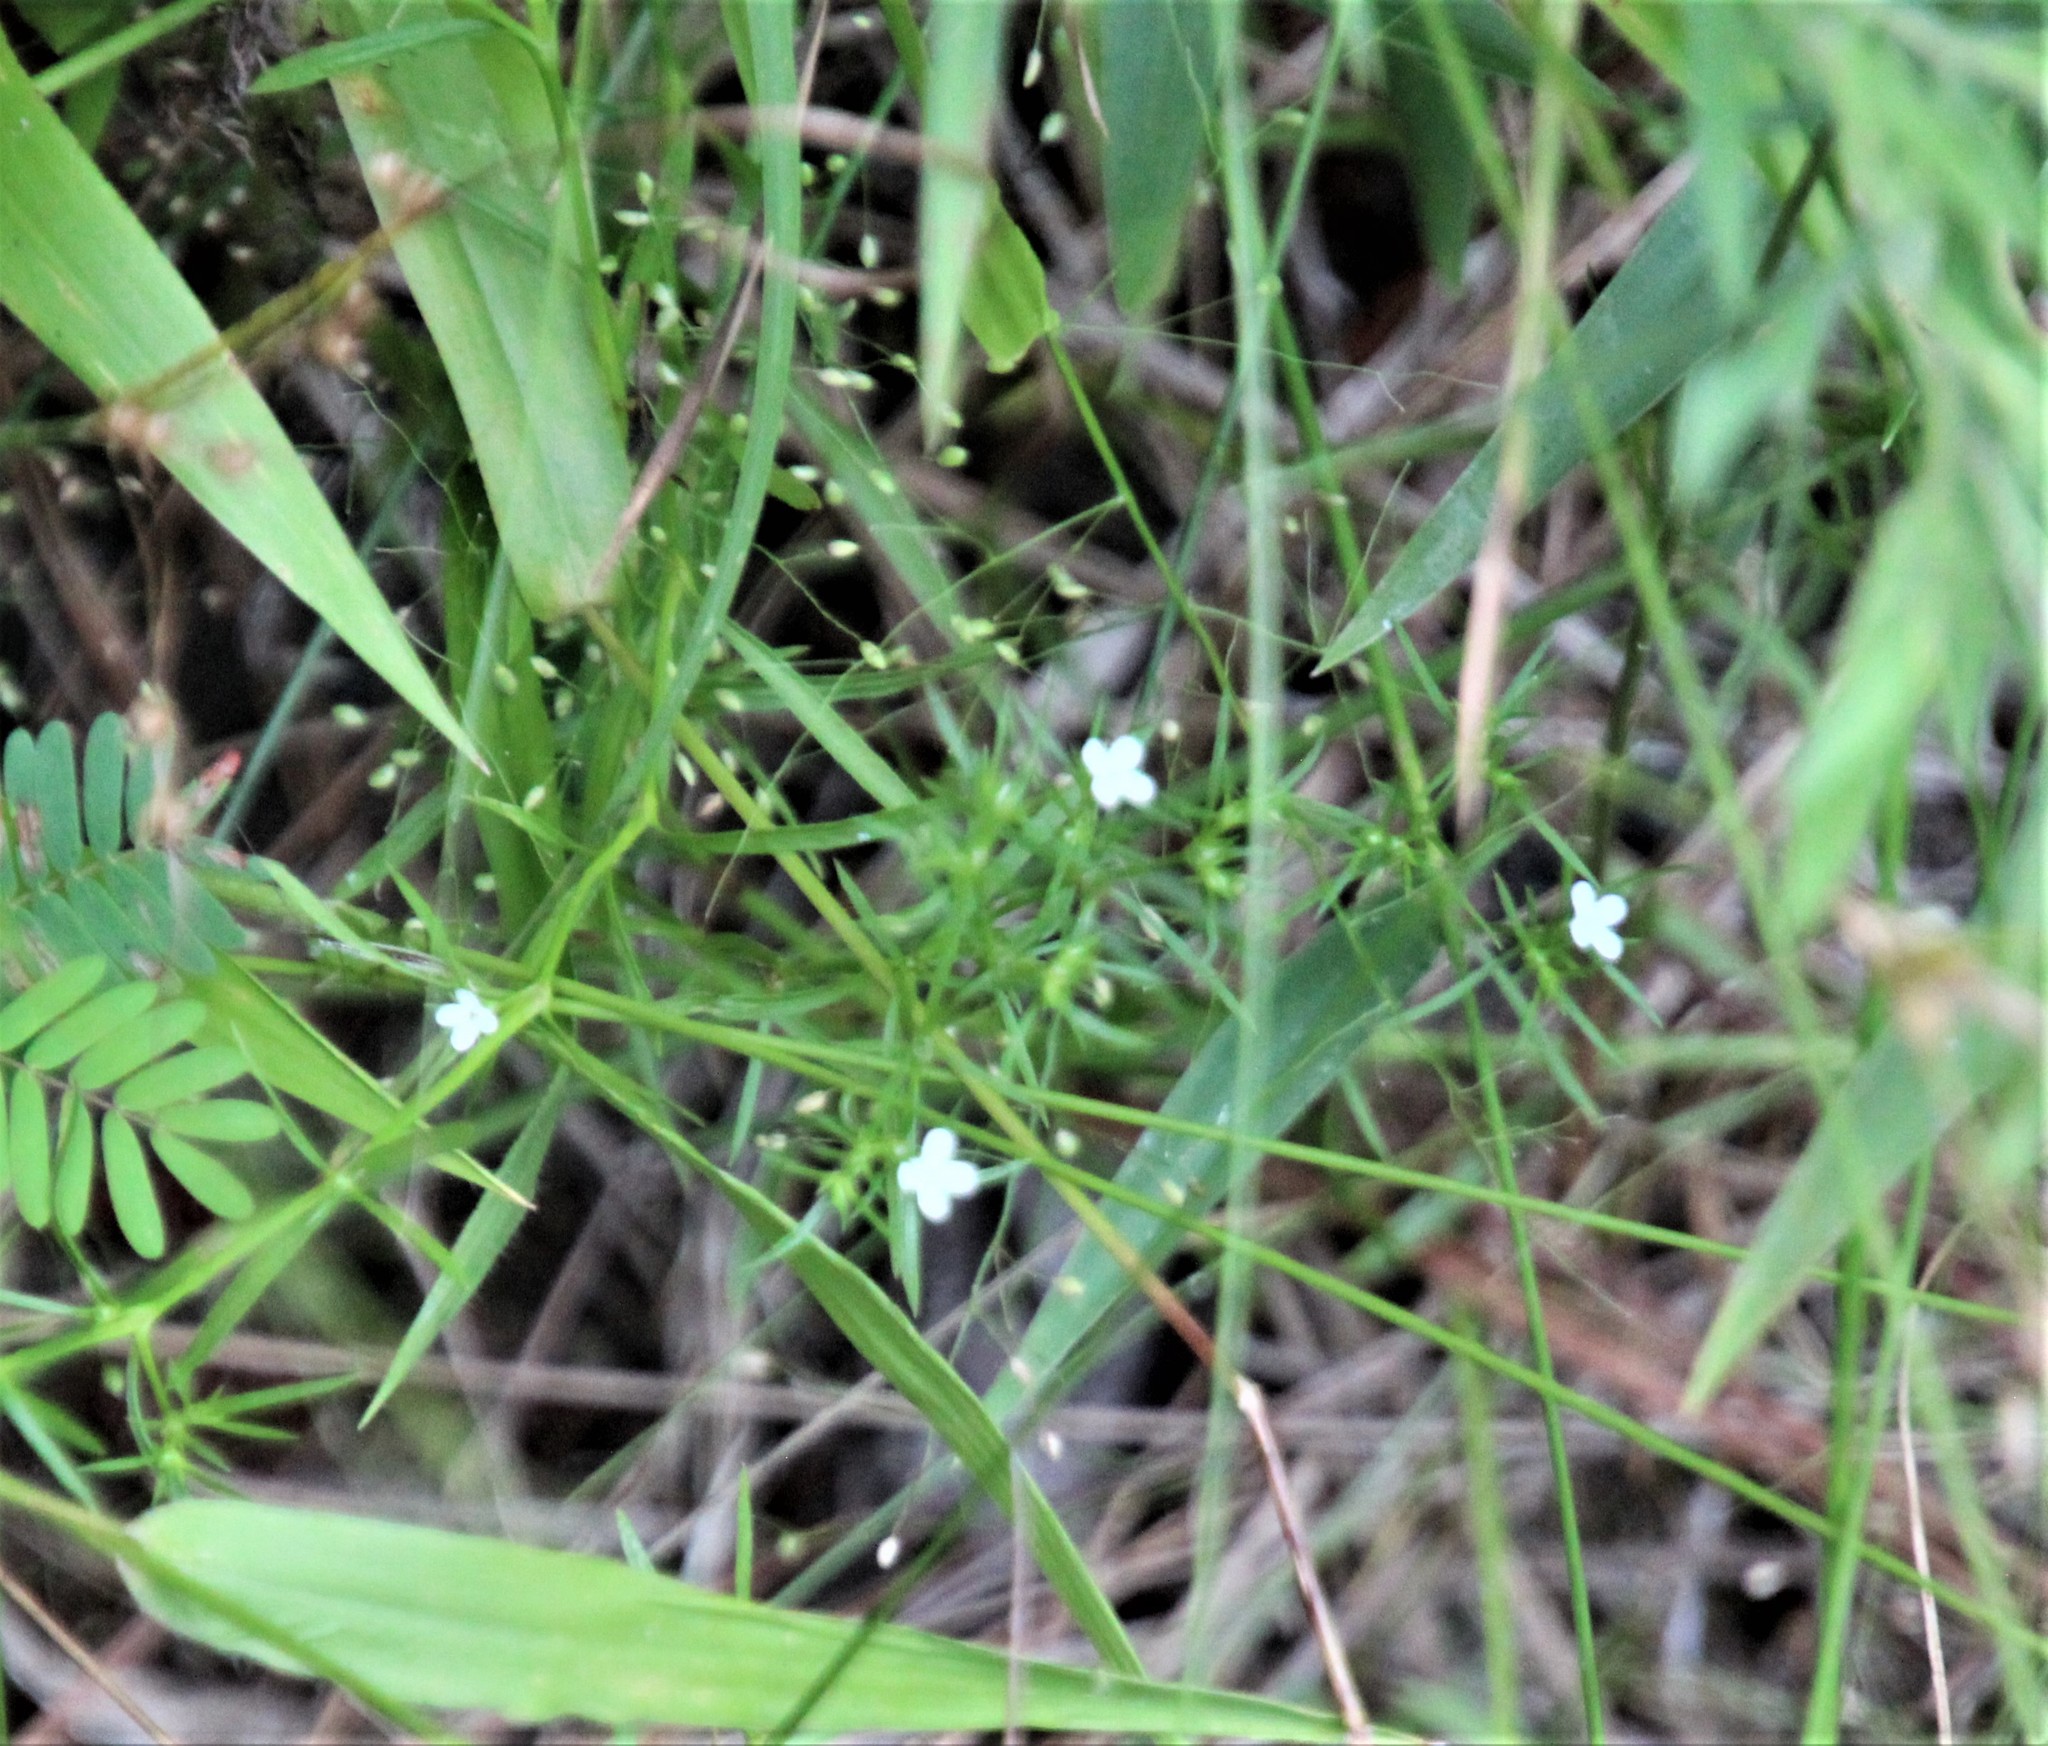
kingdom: Plantae
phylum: Tracheophyta
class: Magnoliopsida
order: Lamiales
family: Tetrachondraceae
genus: Polypremum
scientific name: Polypremum procumbens
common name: Juniper-leaf
